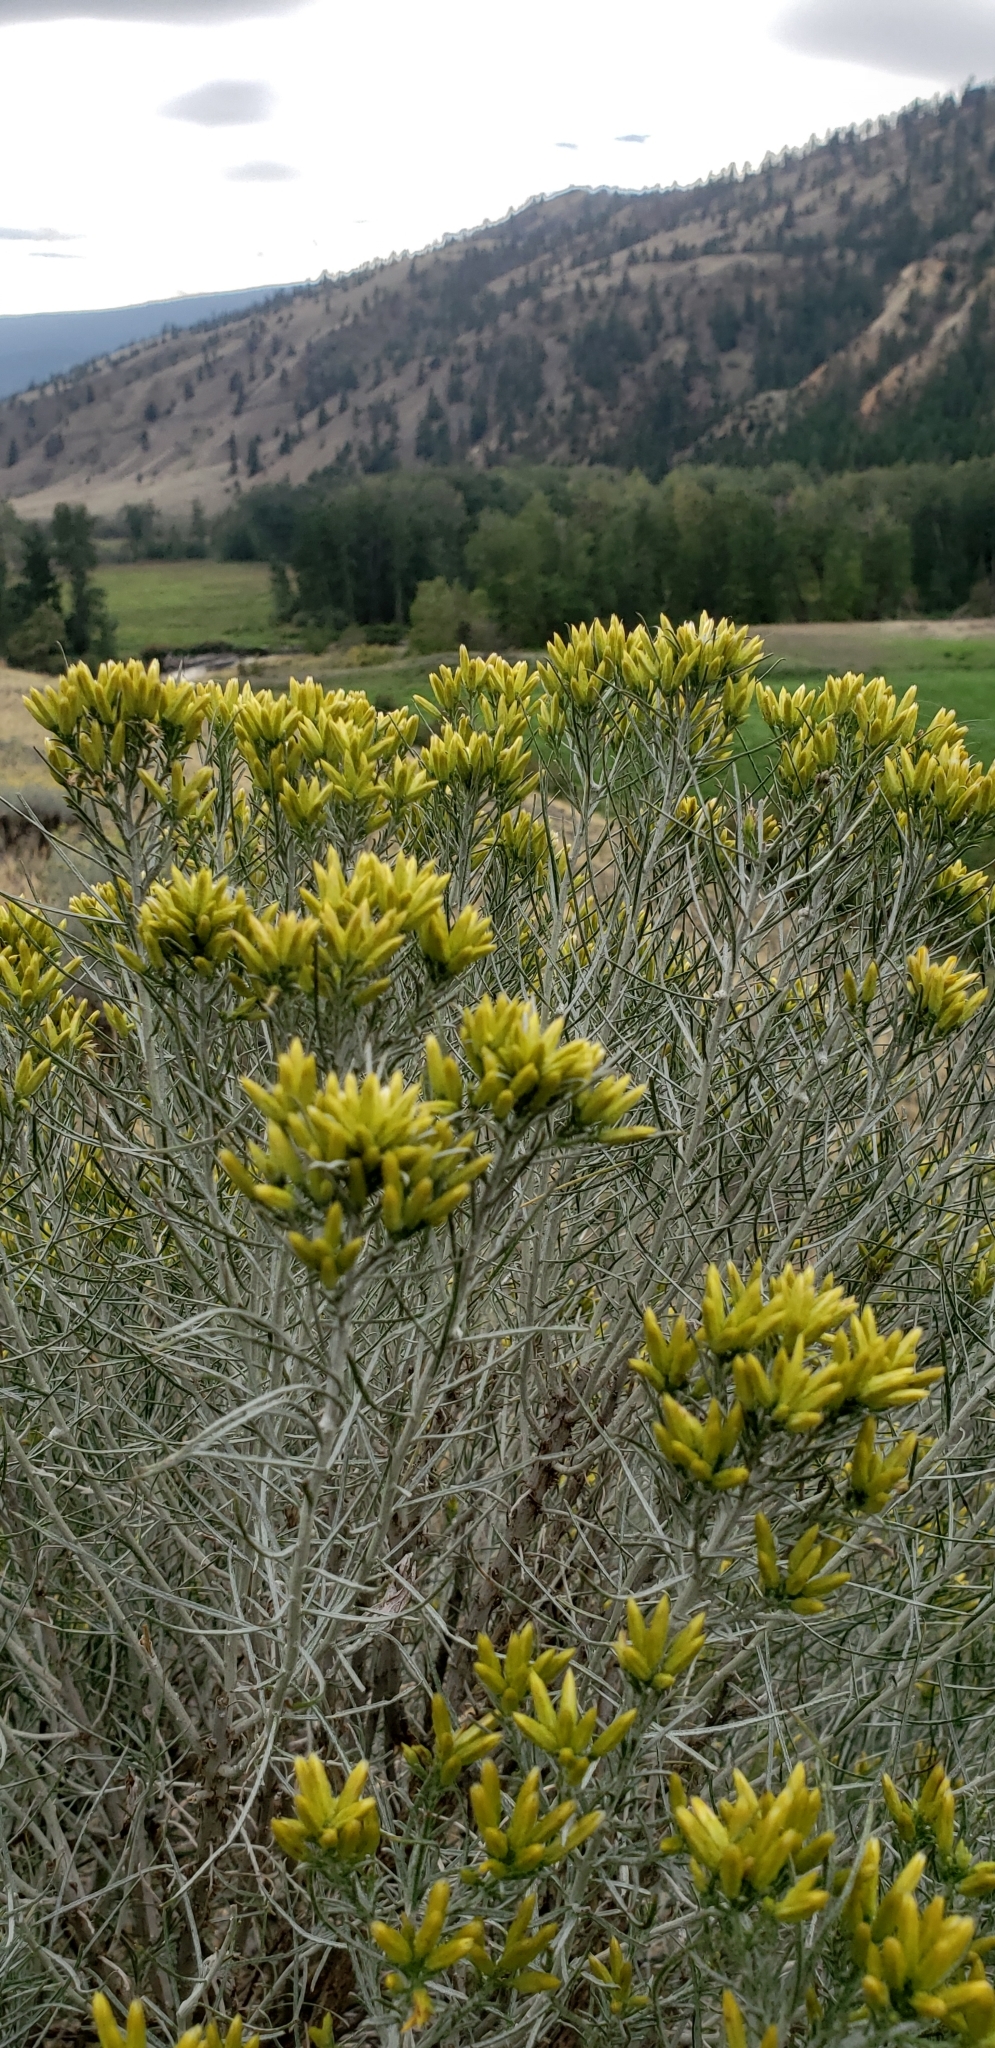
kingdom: Plantae
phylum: Tracheophyta
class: Magnoliopsida
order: Asterales
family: Asteraceae
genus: Ericameria
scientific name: Ericameria nauseosa
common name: Rubber rabbitbrush
